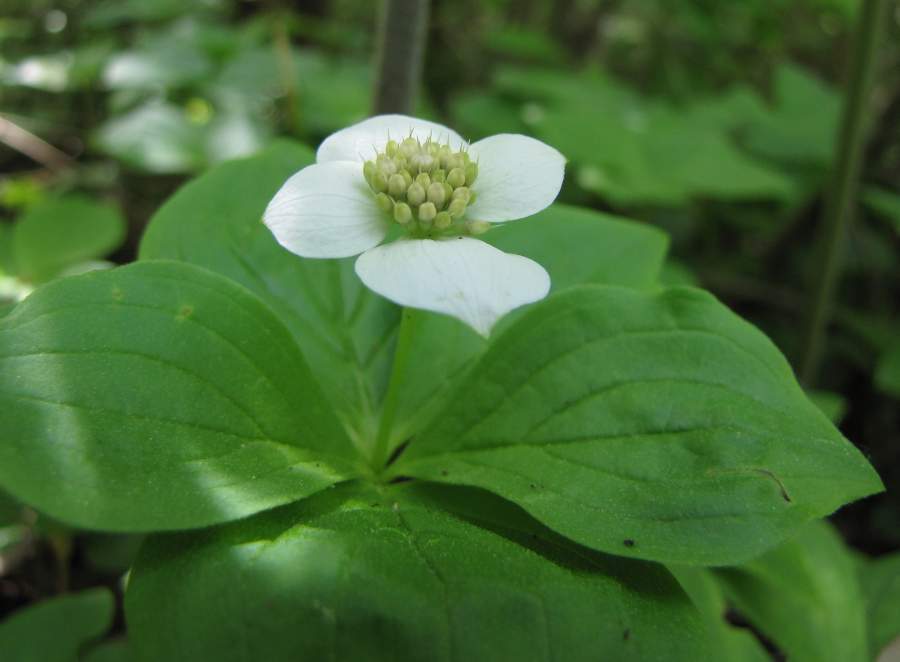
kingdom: Plantae
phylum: Tracheophyta
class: Magnoliopsida
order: Cornales
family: Cornaceae
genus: Cornus
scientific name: Cornus canadensis
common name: Creeping dogwood
